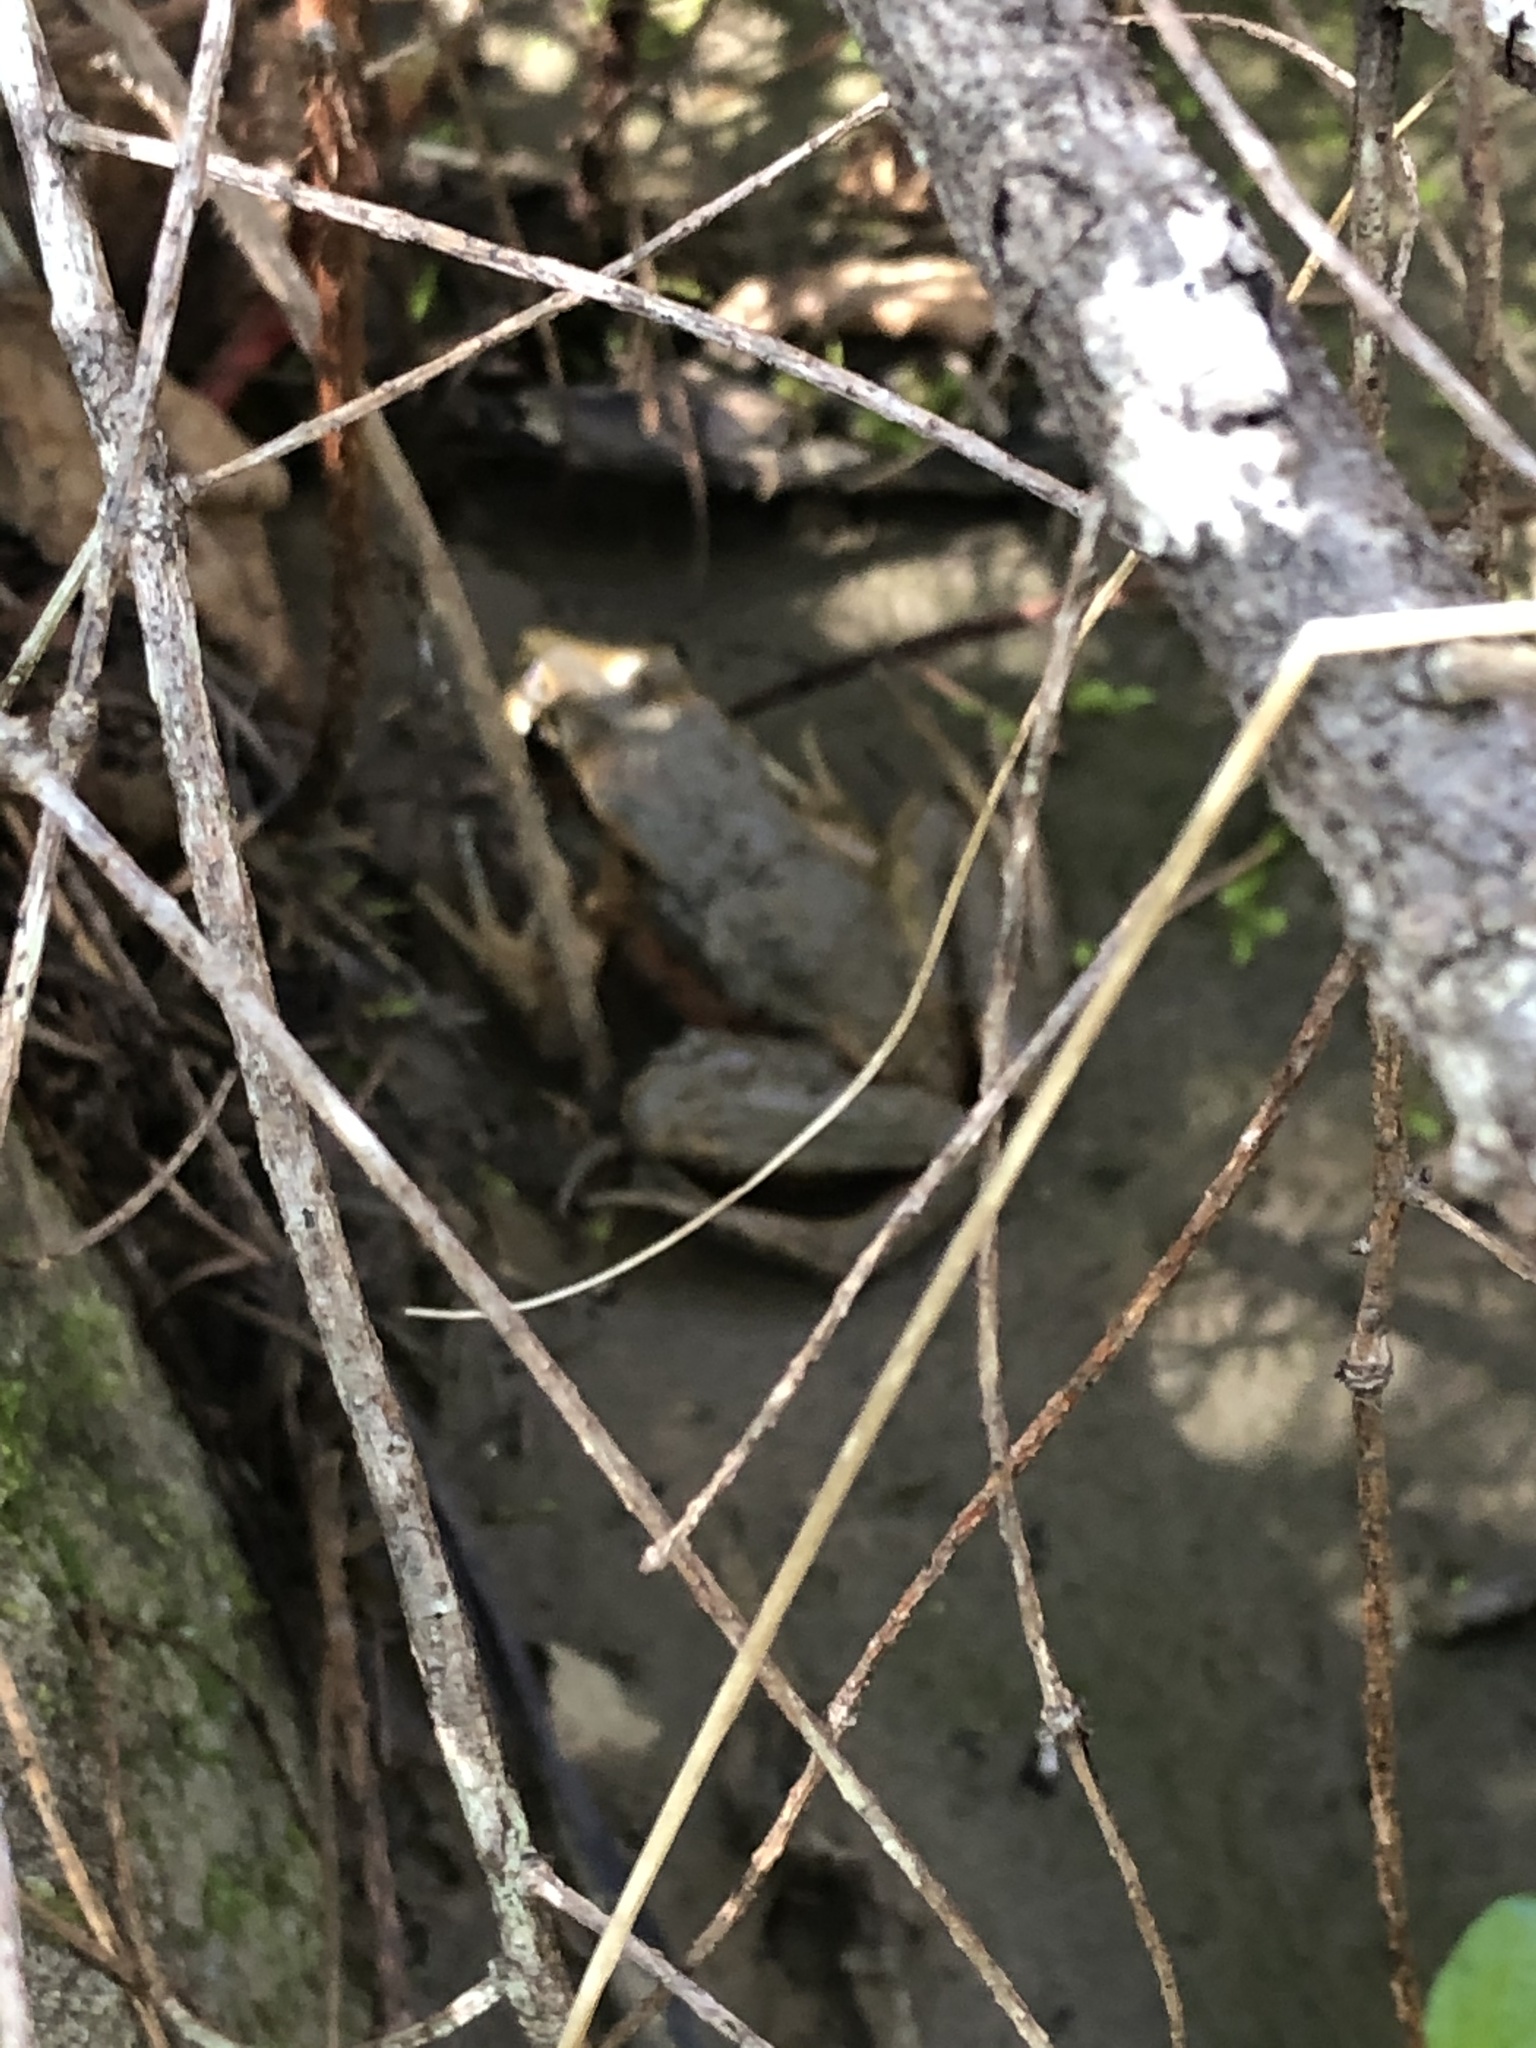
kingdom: Animalia
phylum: Chordata
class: Amphibia
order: Anura
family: Ranidae
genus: Rana
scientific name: Rana aurora
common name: Red-legged frog
